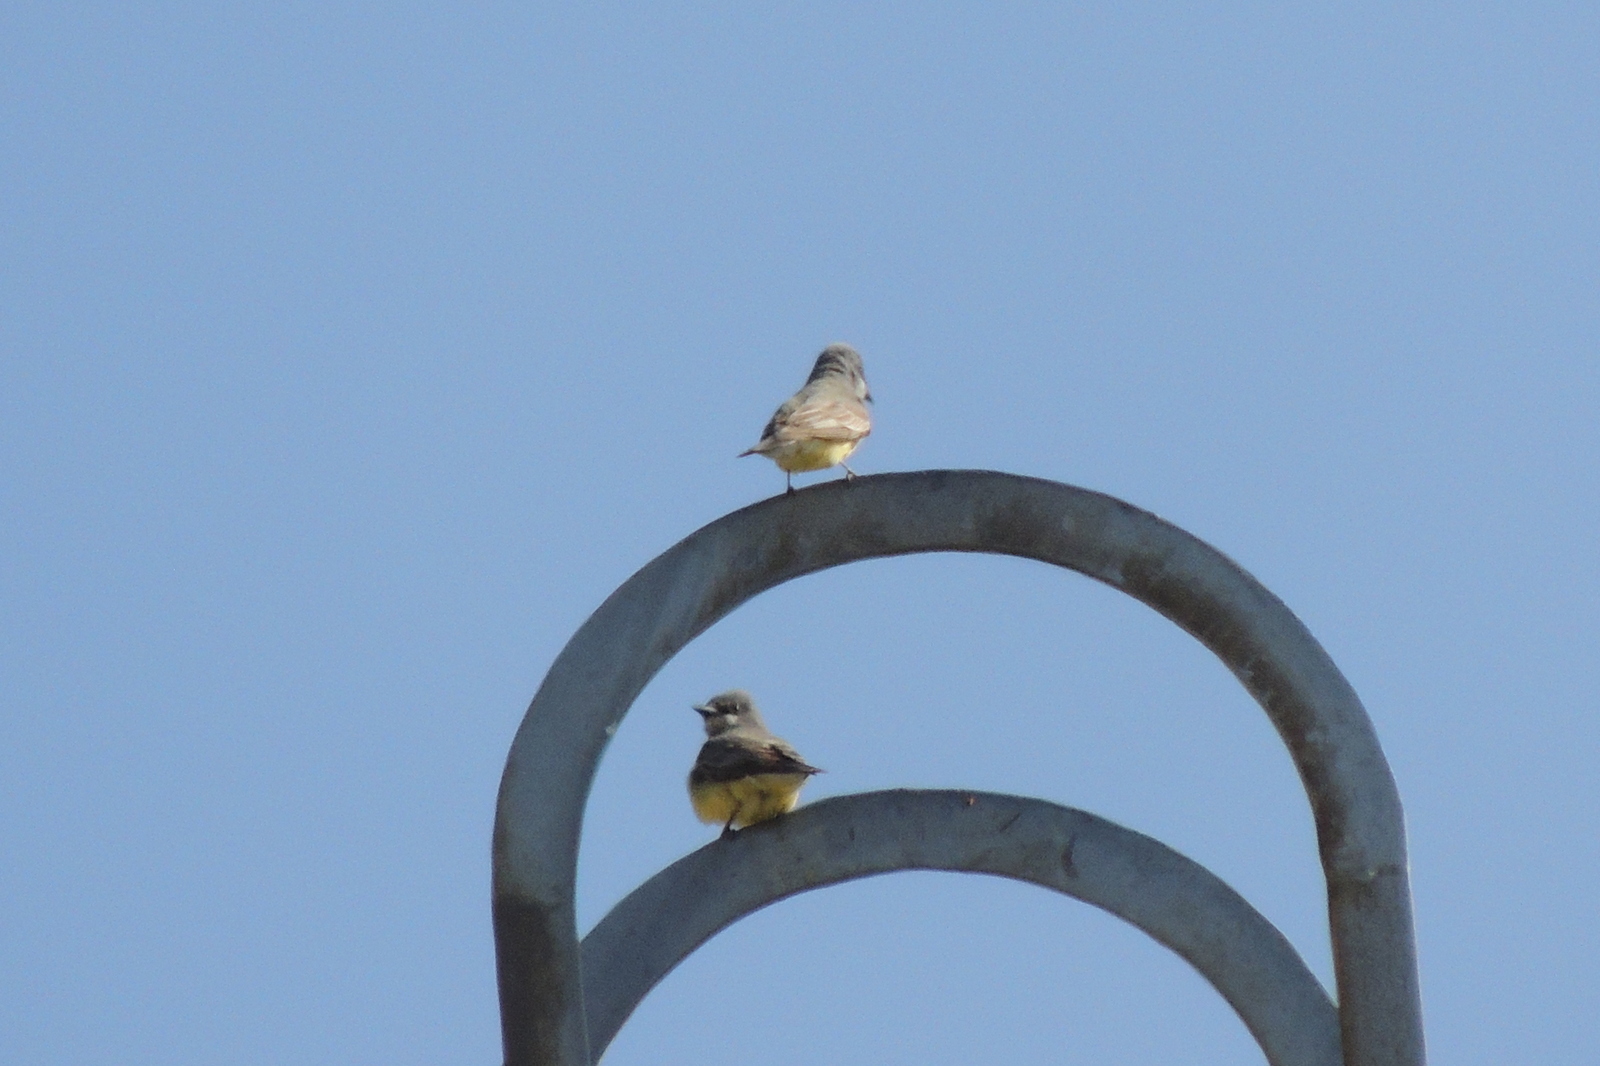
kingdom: Animalia
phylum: Chordata
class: Aves
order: Passeriformes
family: Tyrannidae
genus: Tyrannus
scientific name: Tyrannus vociferans
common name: Cassin's kingbird
